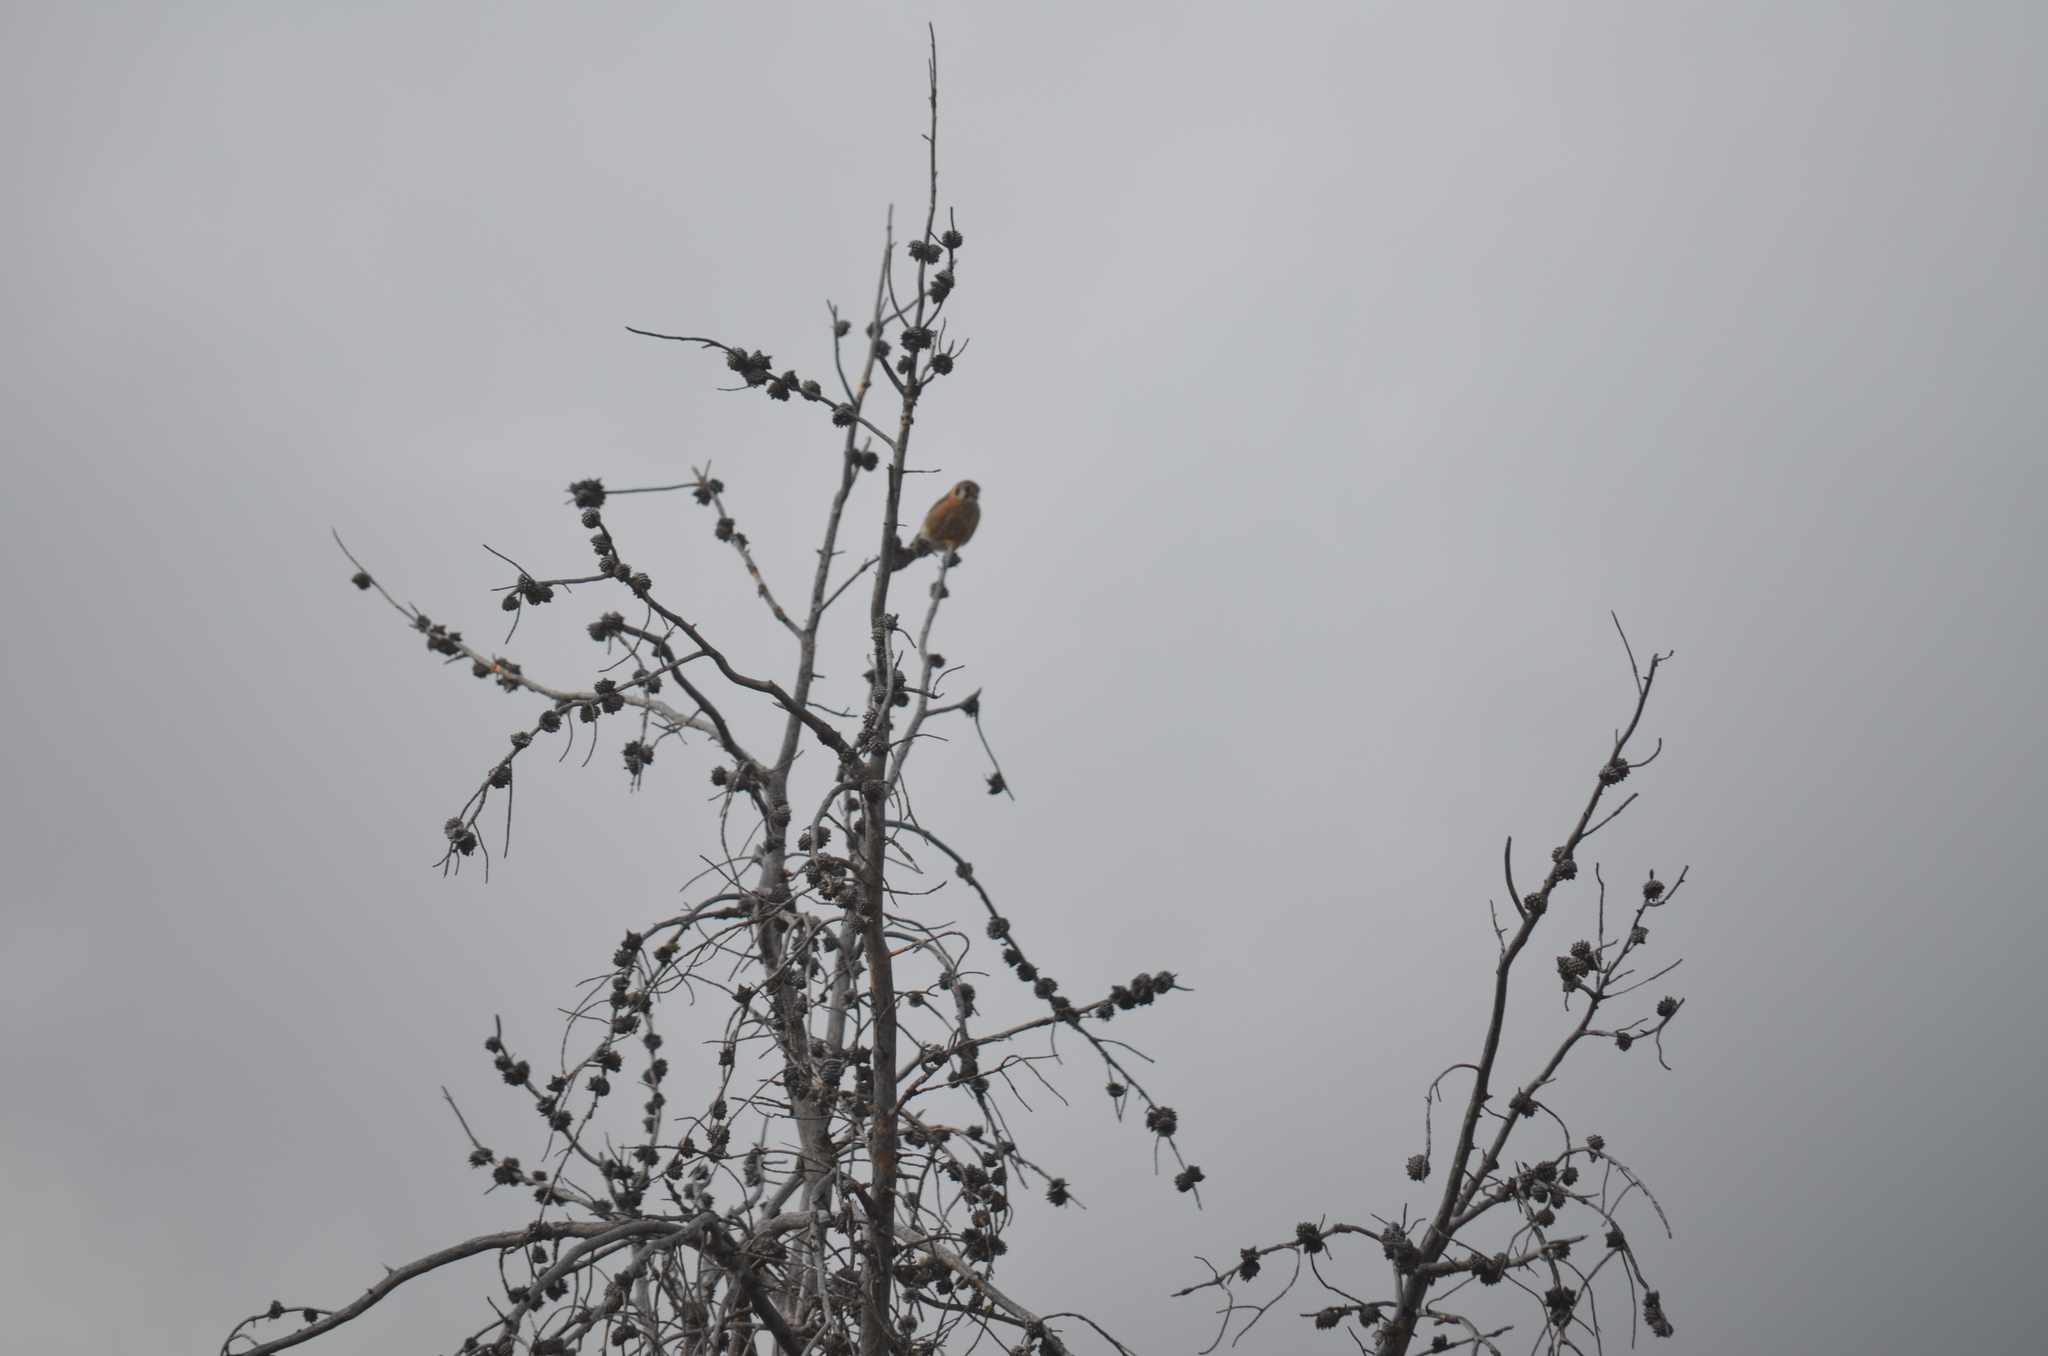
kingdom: Animalia
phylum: Chordata
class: Aves
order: Falconiformes
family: Falconidae
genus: Falco
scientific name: Falco sparverius
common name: American kestrel
